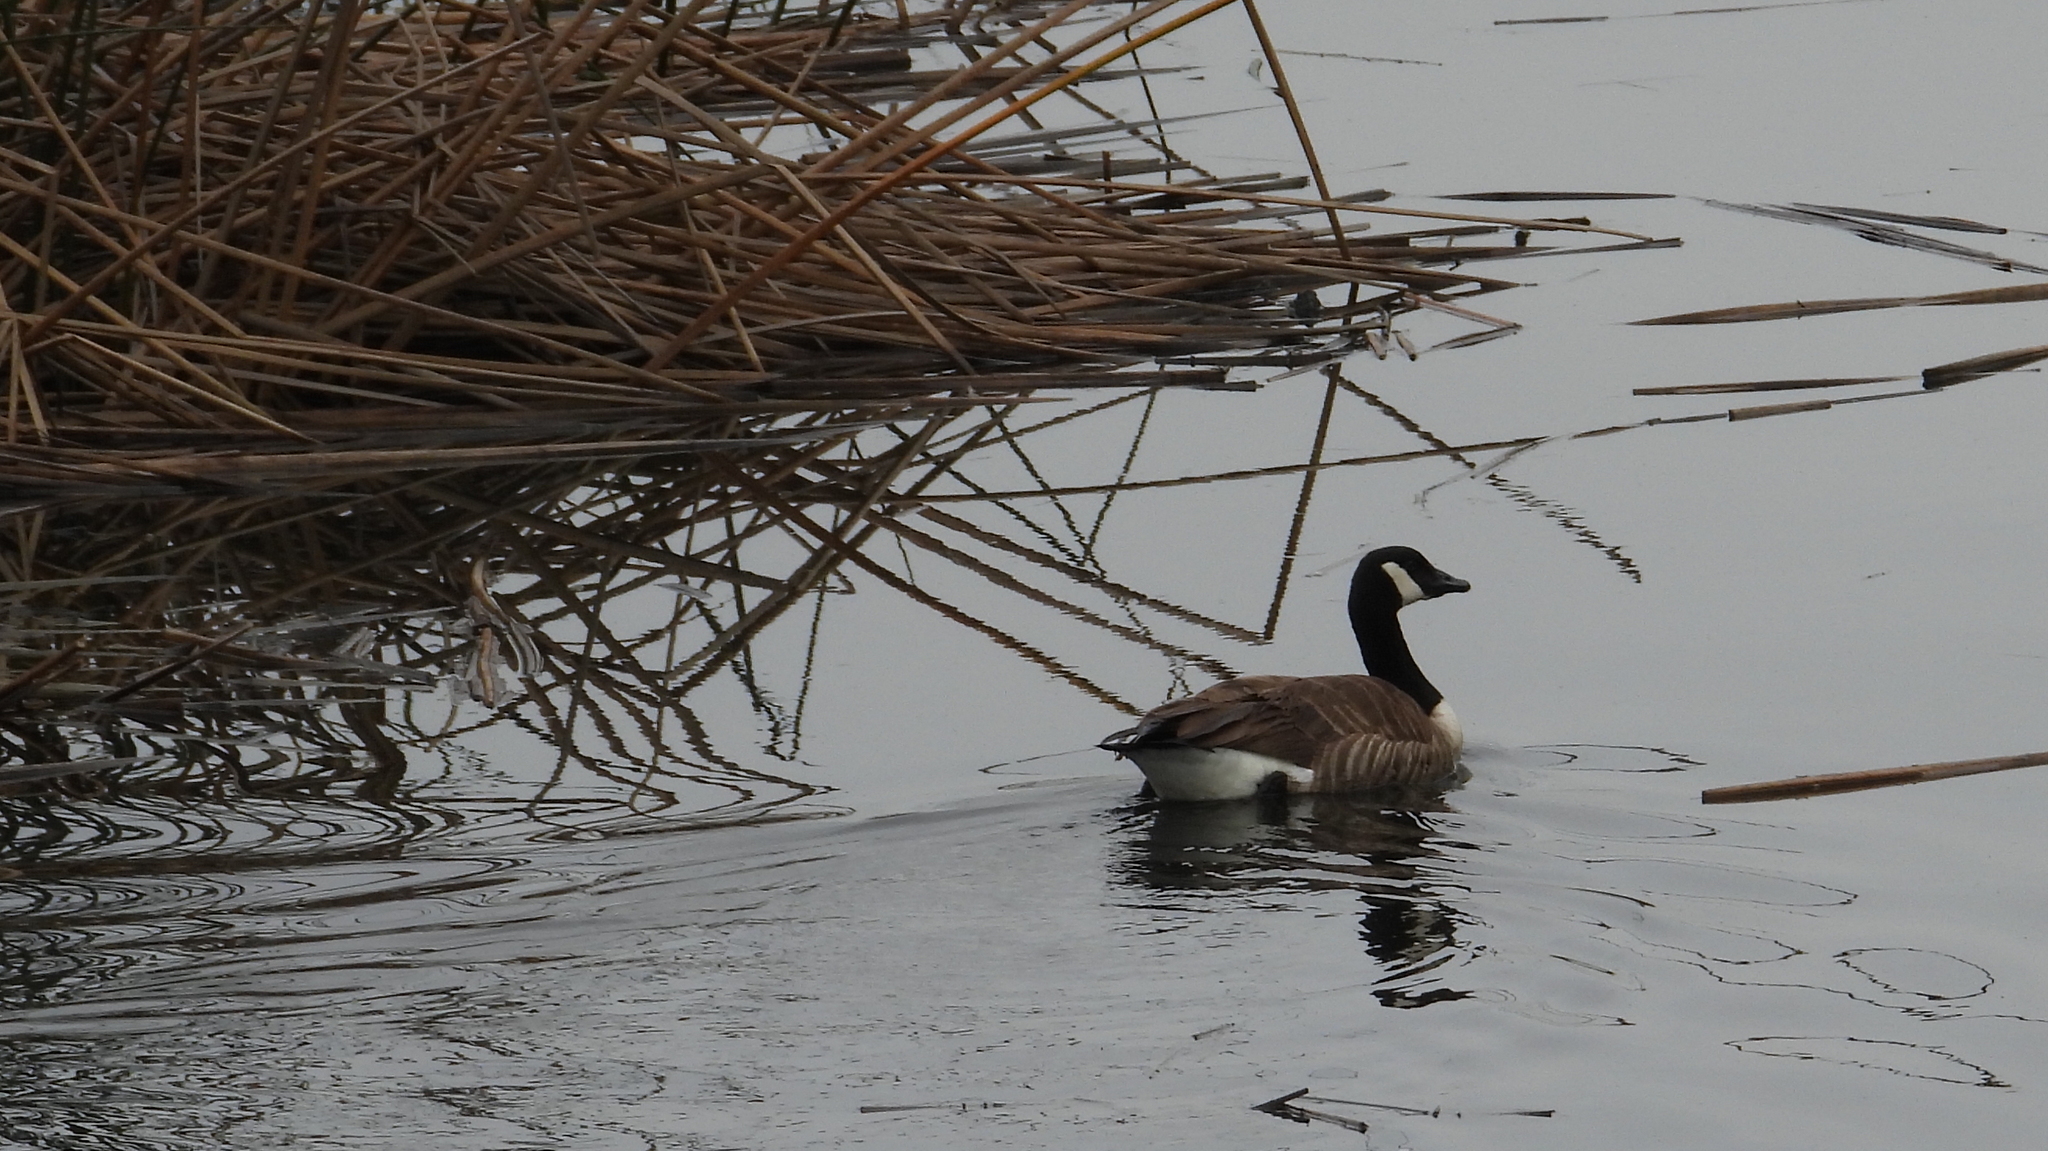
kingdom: Animalia
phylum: Chordata
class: Aves
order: Anseriformes
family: Anatidae
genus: Branta
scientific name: Branta canadensis
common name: Canada goose
